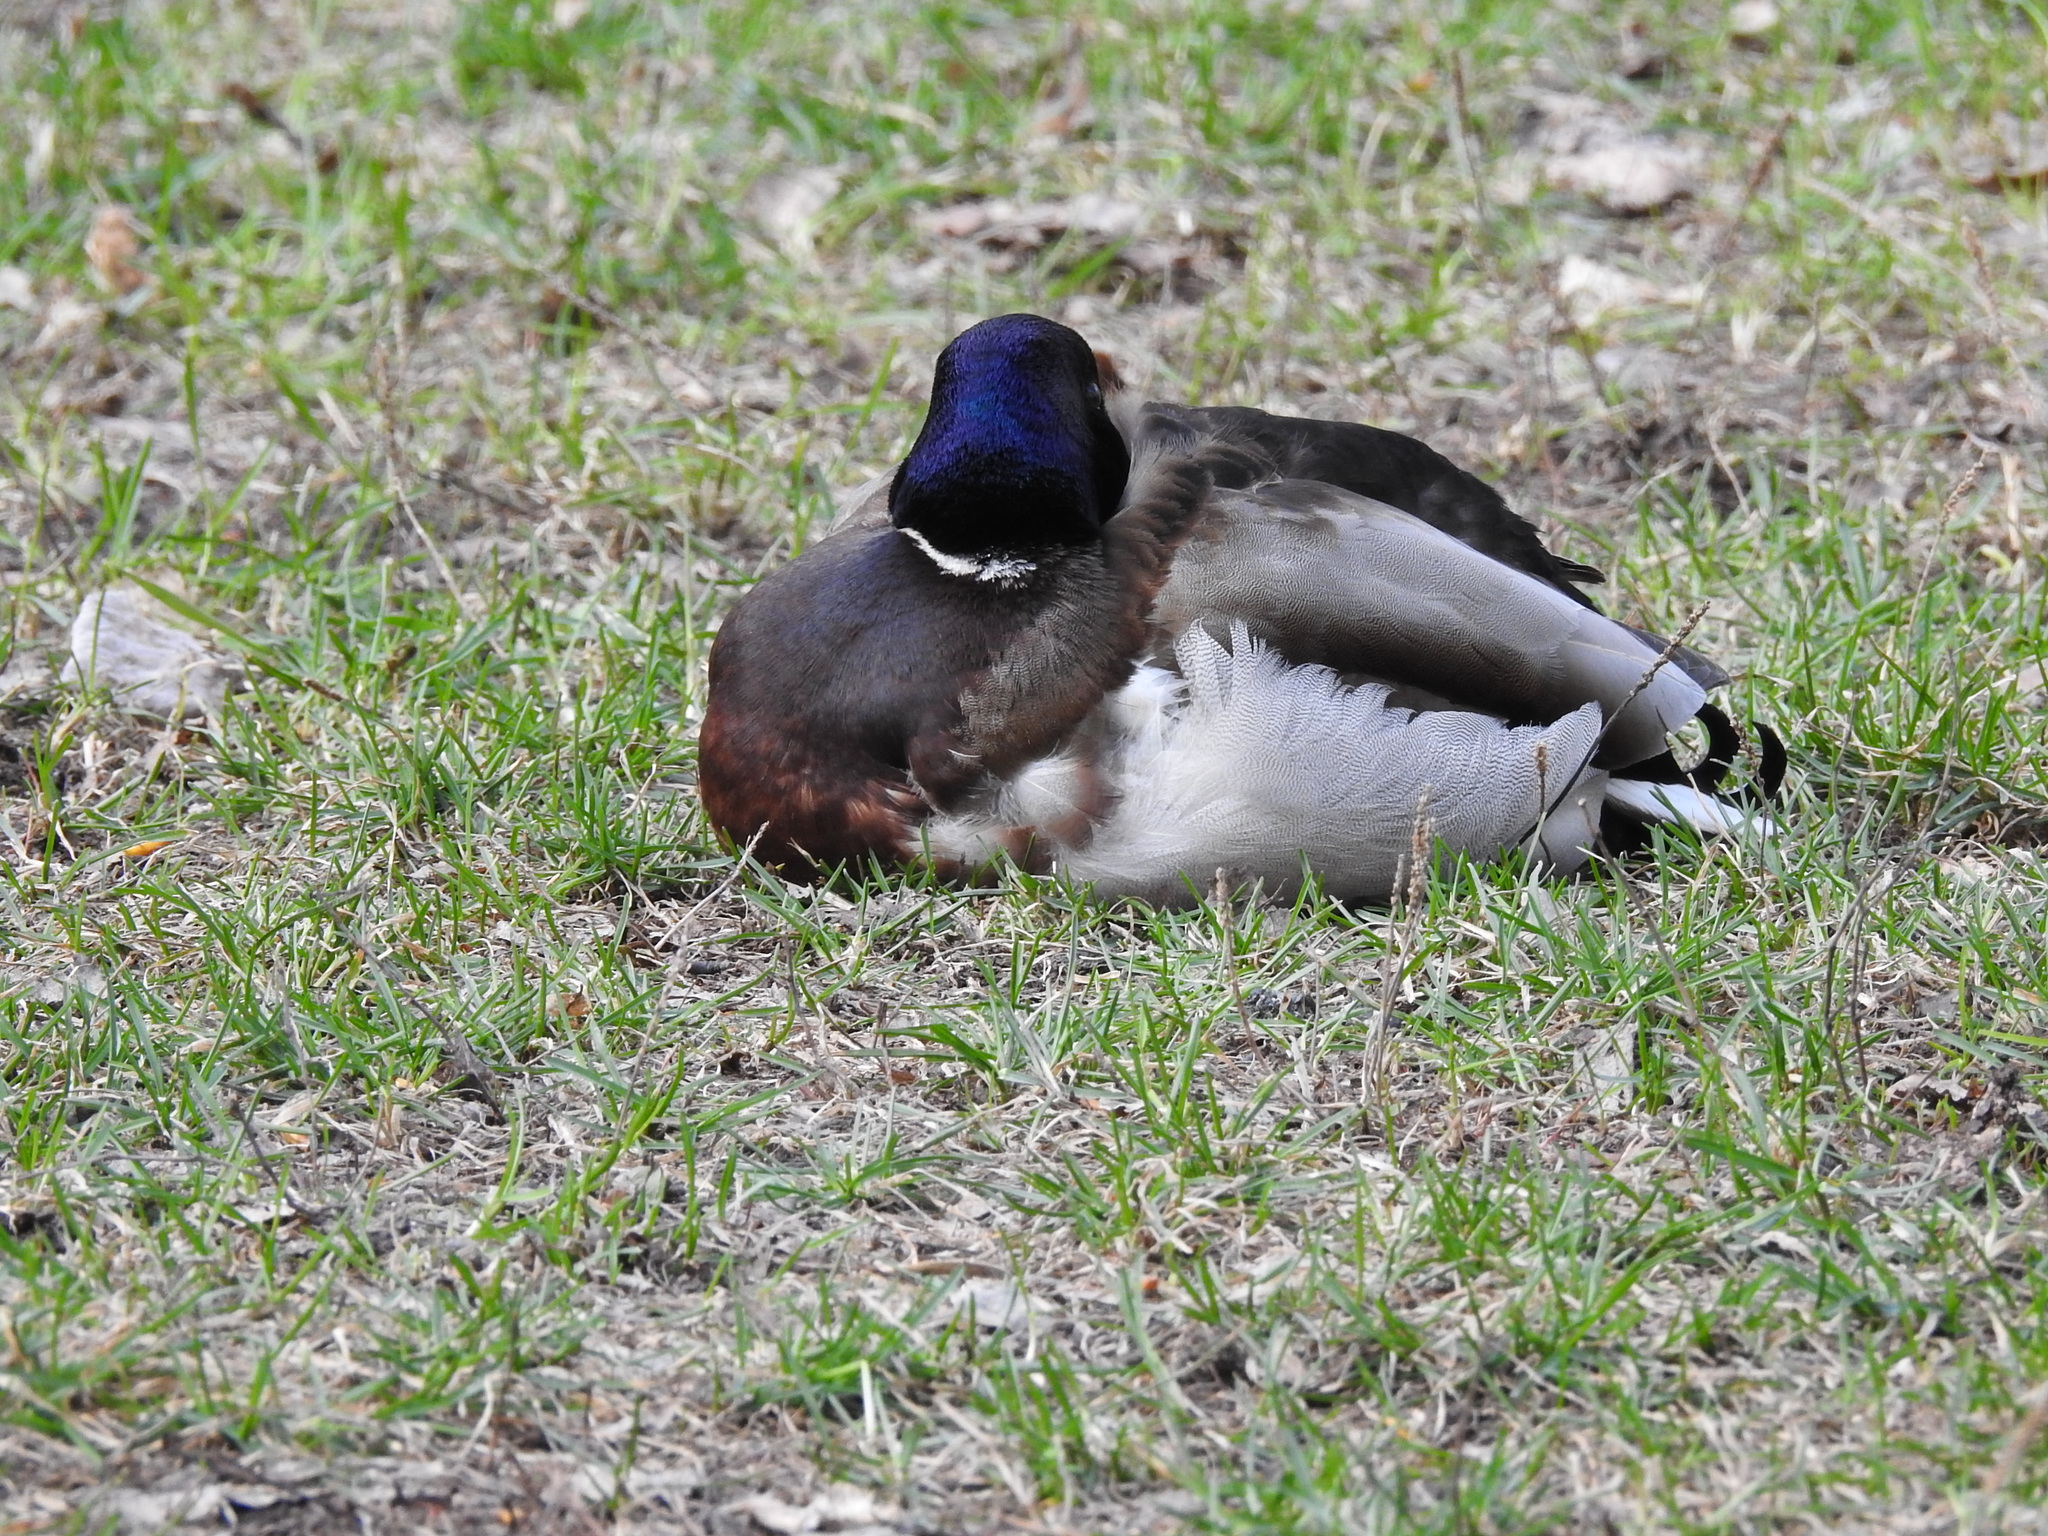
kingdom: Animalia
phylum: Chordata
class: Aves
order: Anseriformes
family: Anatidae
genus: Anas
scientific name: Anas platyrhynchos
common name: Mallard
